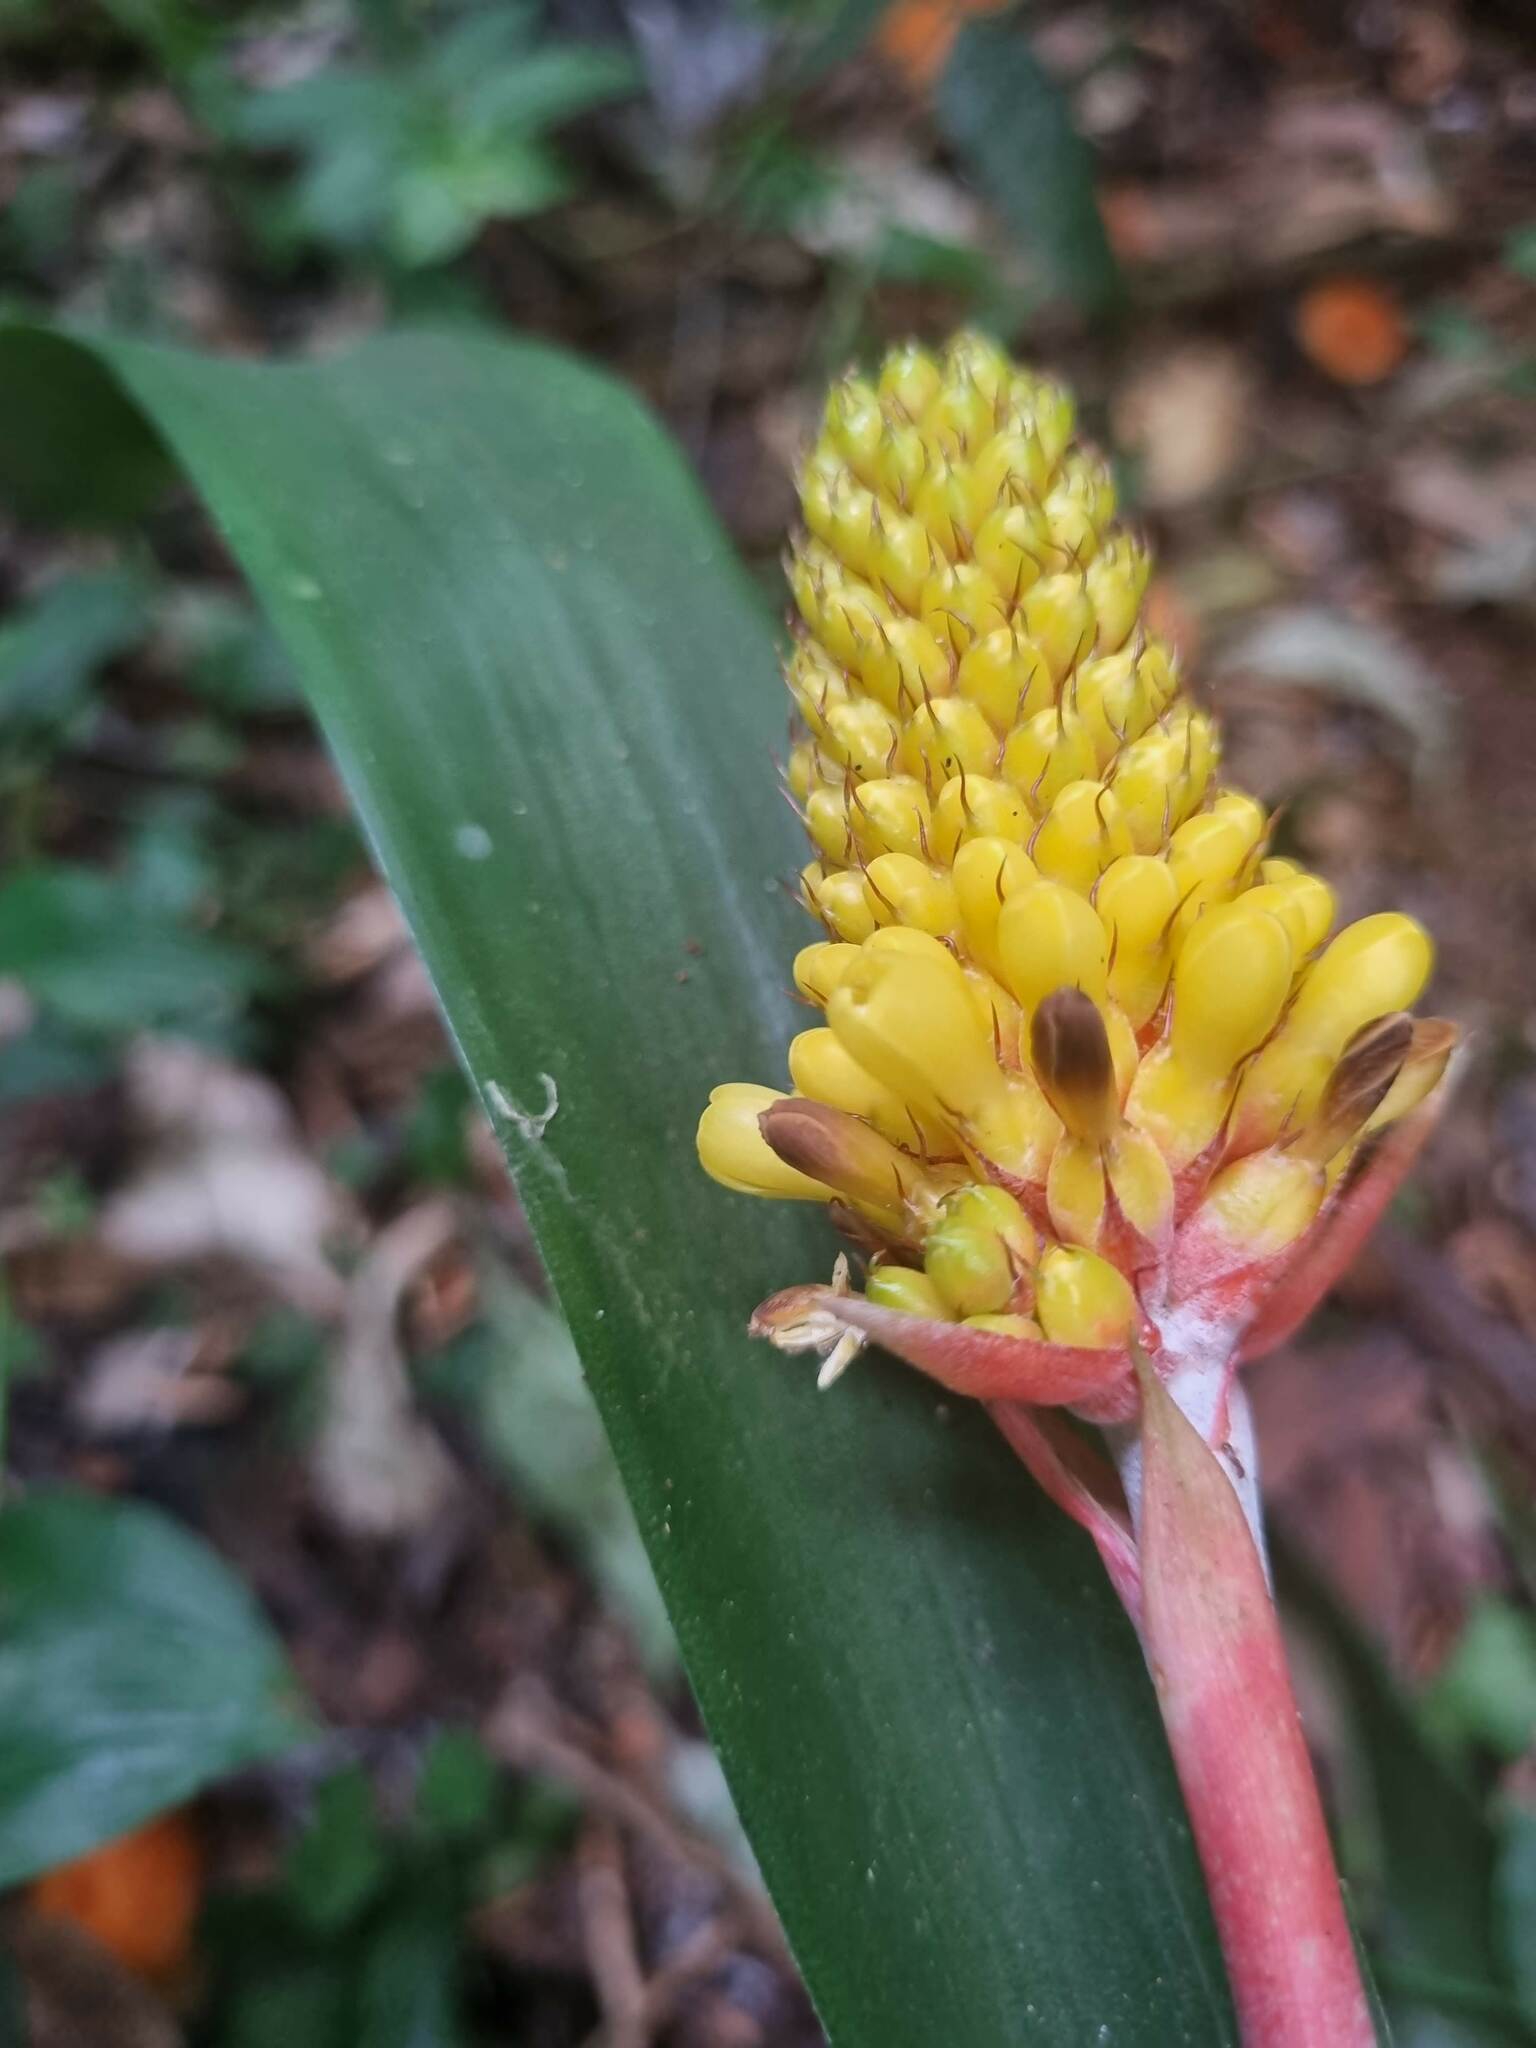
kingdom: Plantae
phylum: Tracheophyta
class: Liliopsida
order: Poales
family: Bromeliaceae
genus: Aechmea
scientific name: Aechmea calyculata
